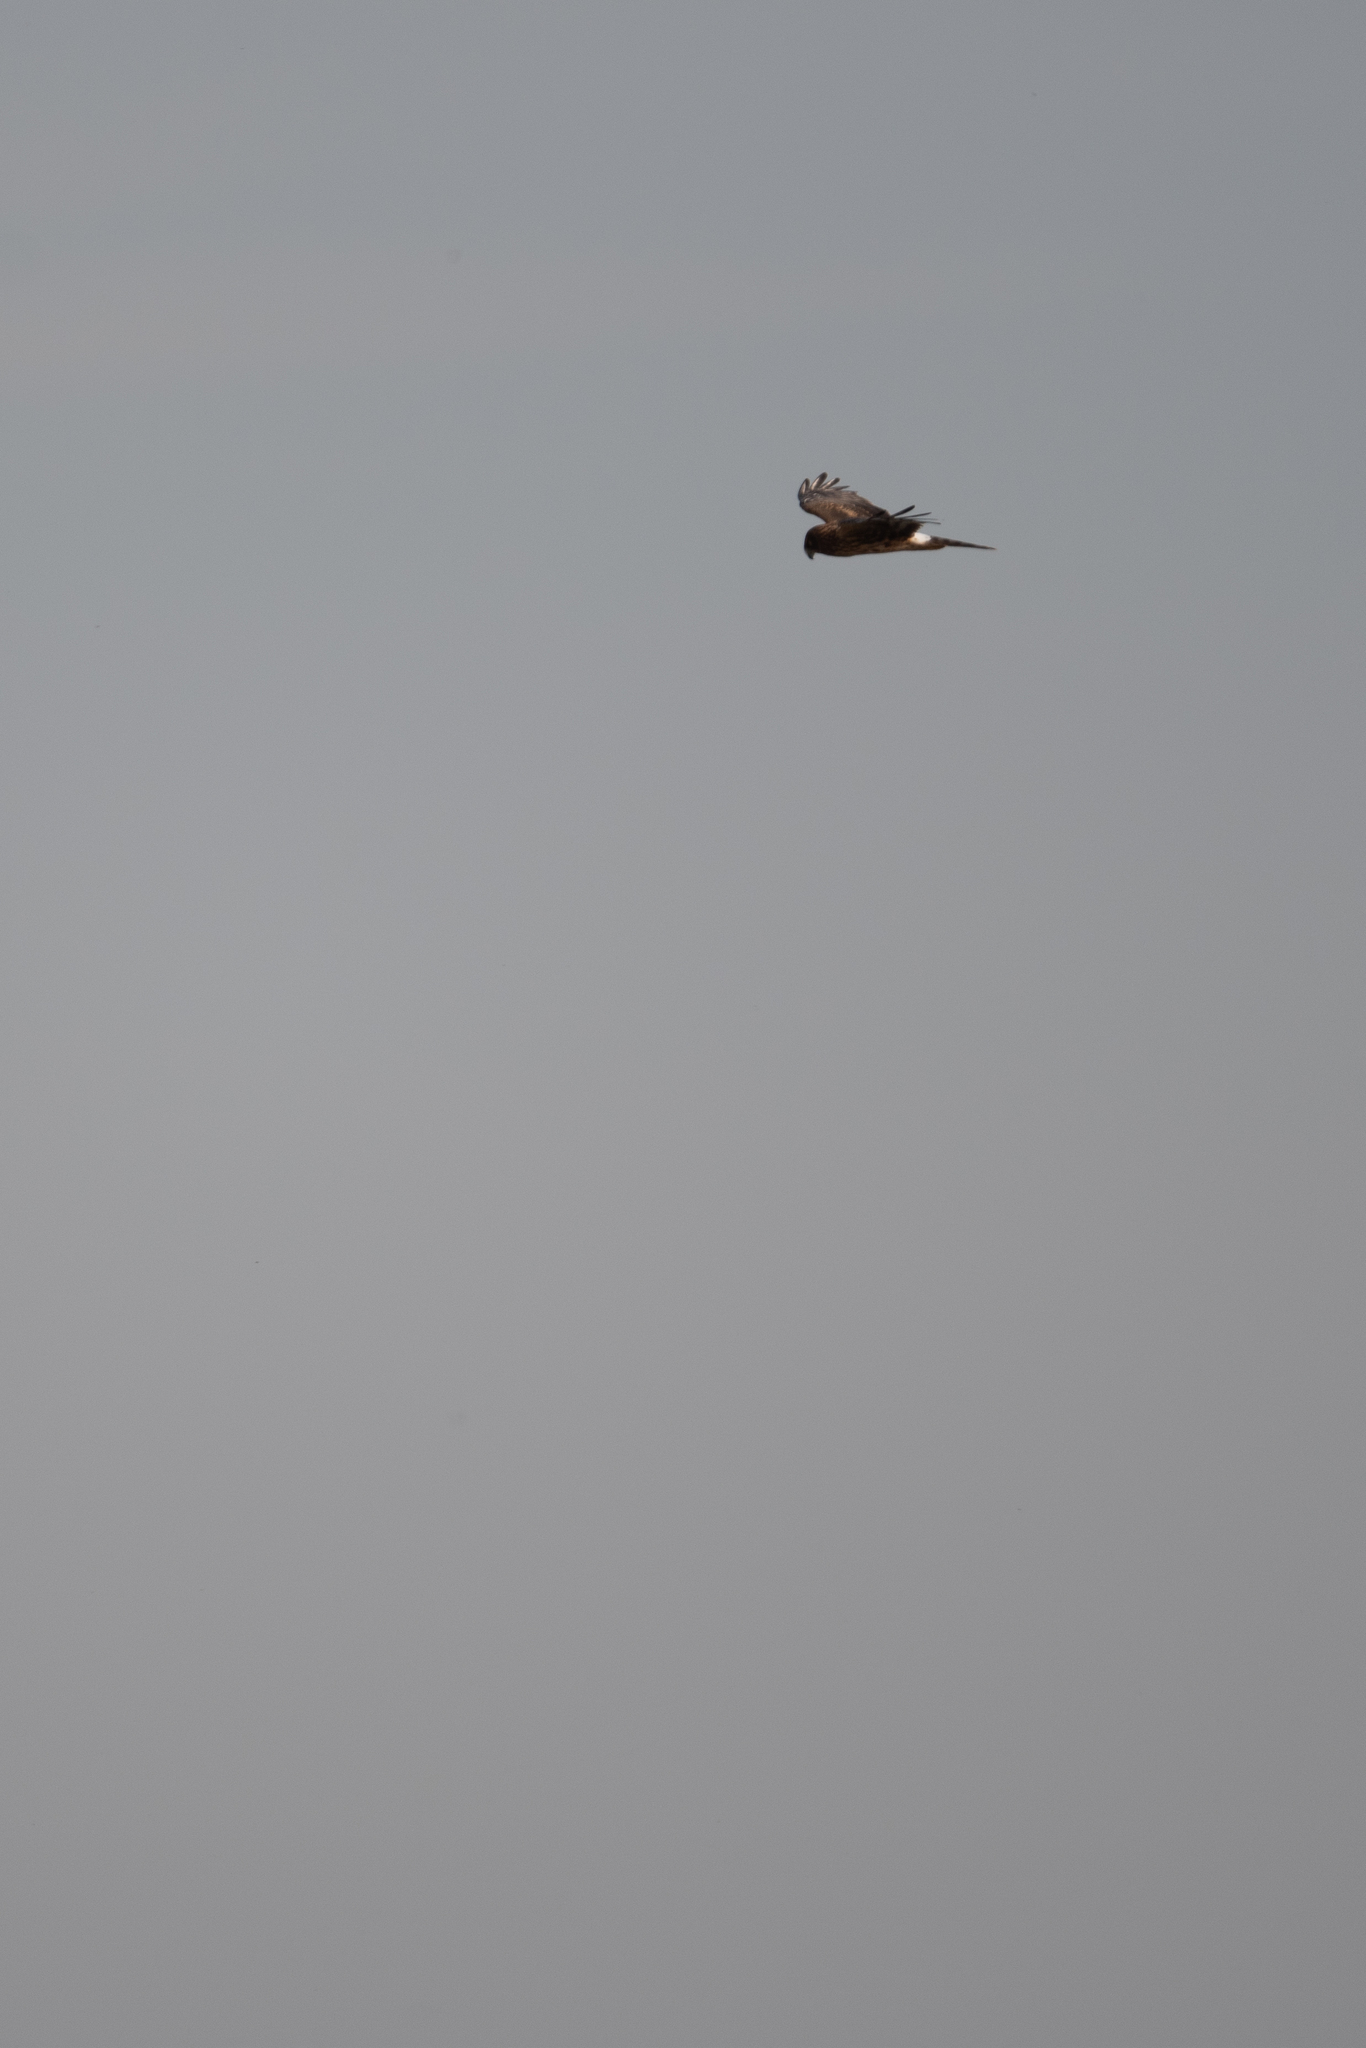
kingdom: Animalia
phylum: Chordata
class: Aves
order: Accipitriformes
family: Accipitridae
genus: Circus
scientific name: Circus cyaneus
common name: Hen harrier
